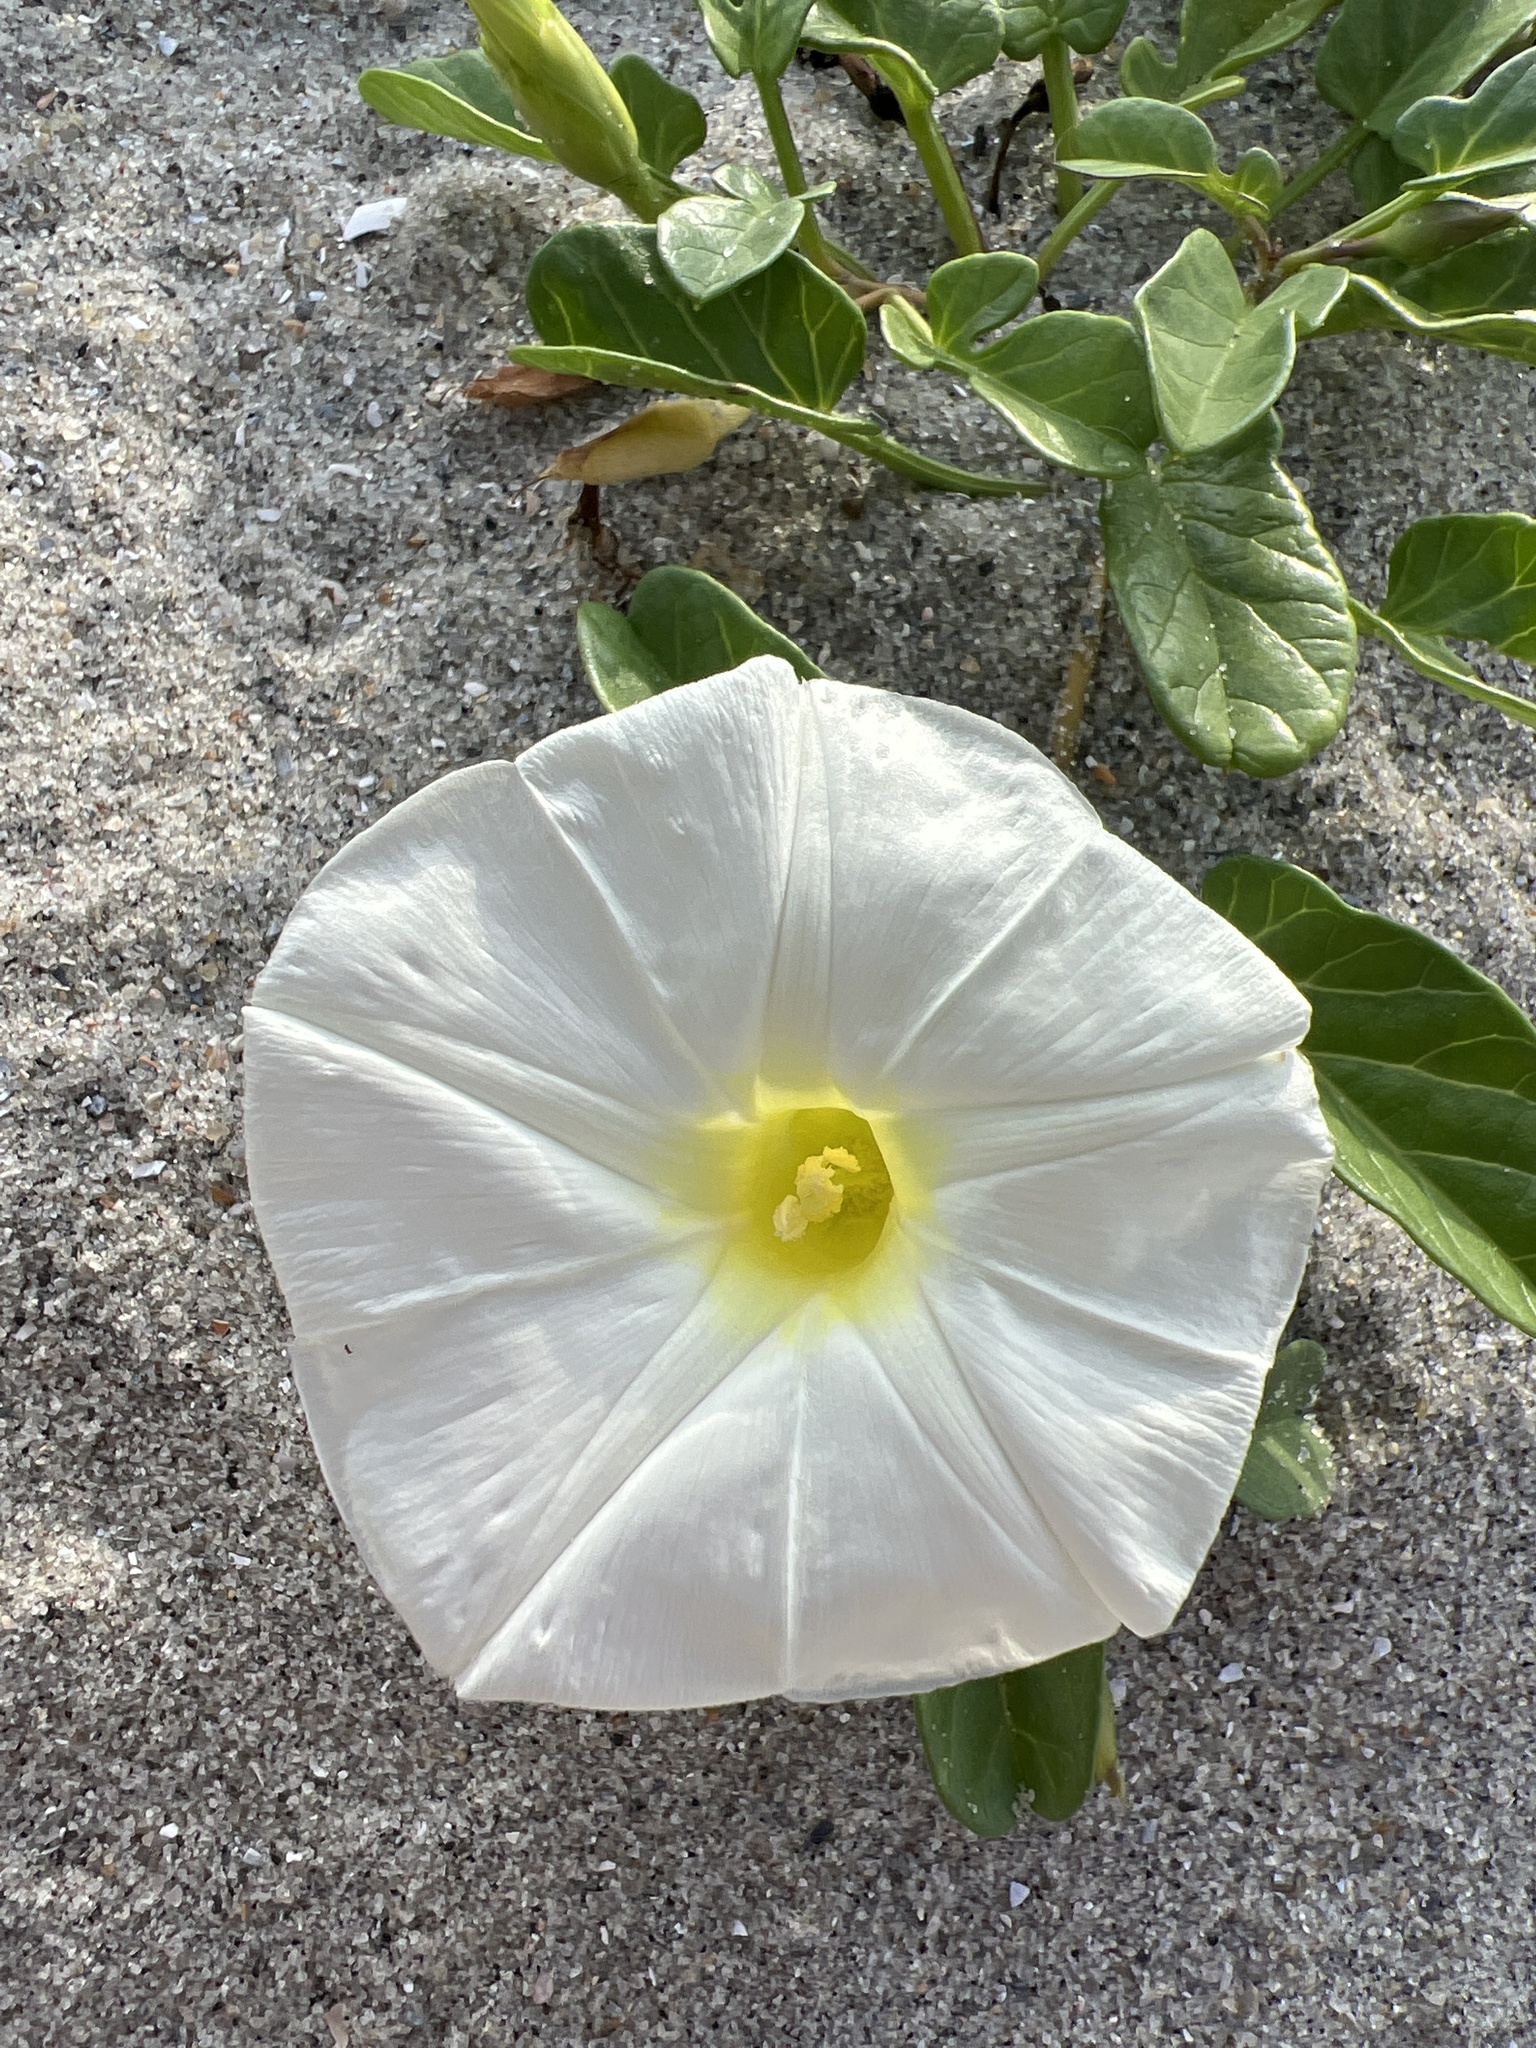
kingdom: Plantae
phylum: Tracheophyta
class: Magnoliopsida
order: Solanales
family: Convolvulaceae
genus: Ipomoea
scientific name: Ipomoea imperati
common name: Fiddle-leaf morning-glory
